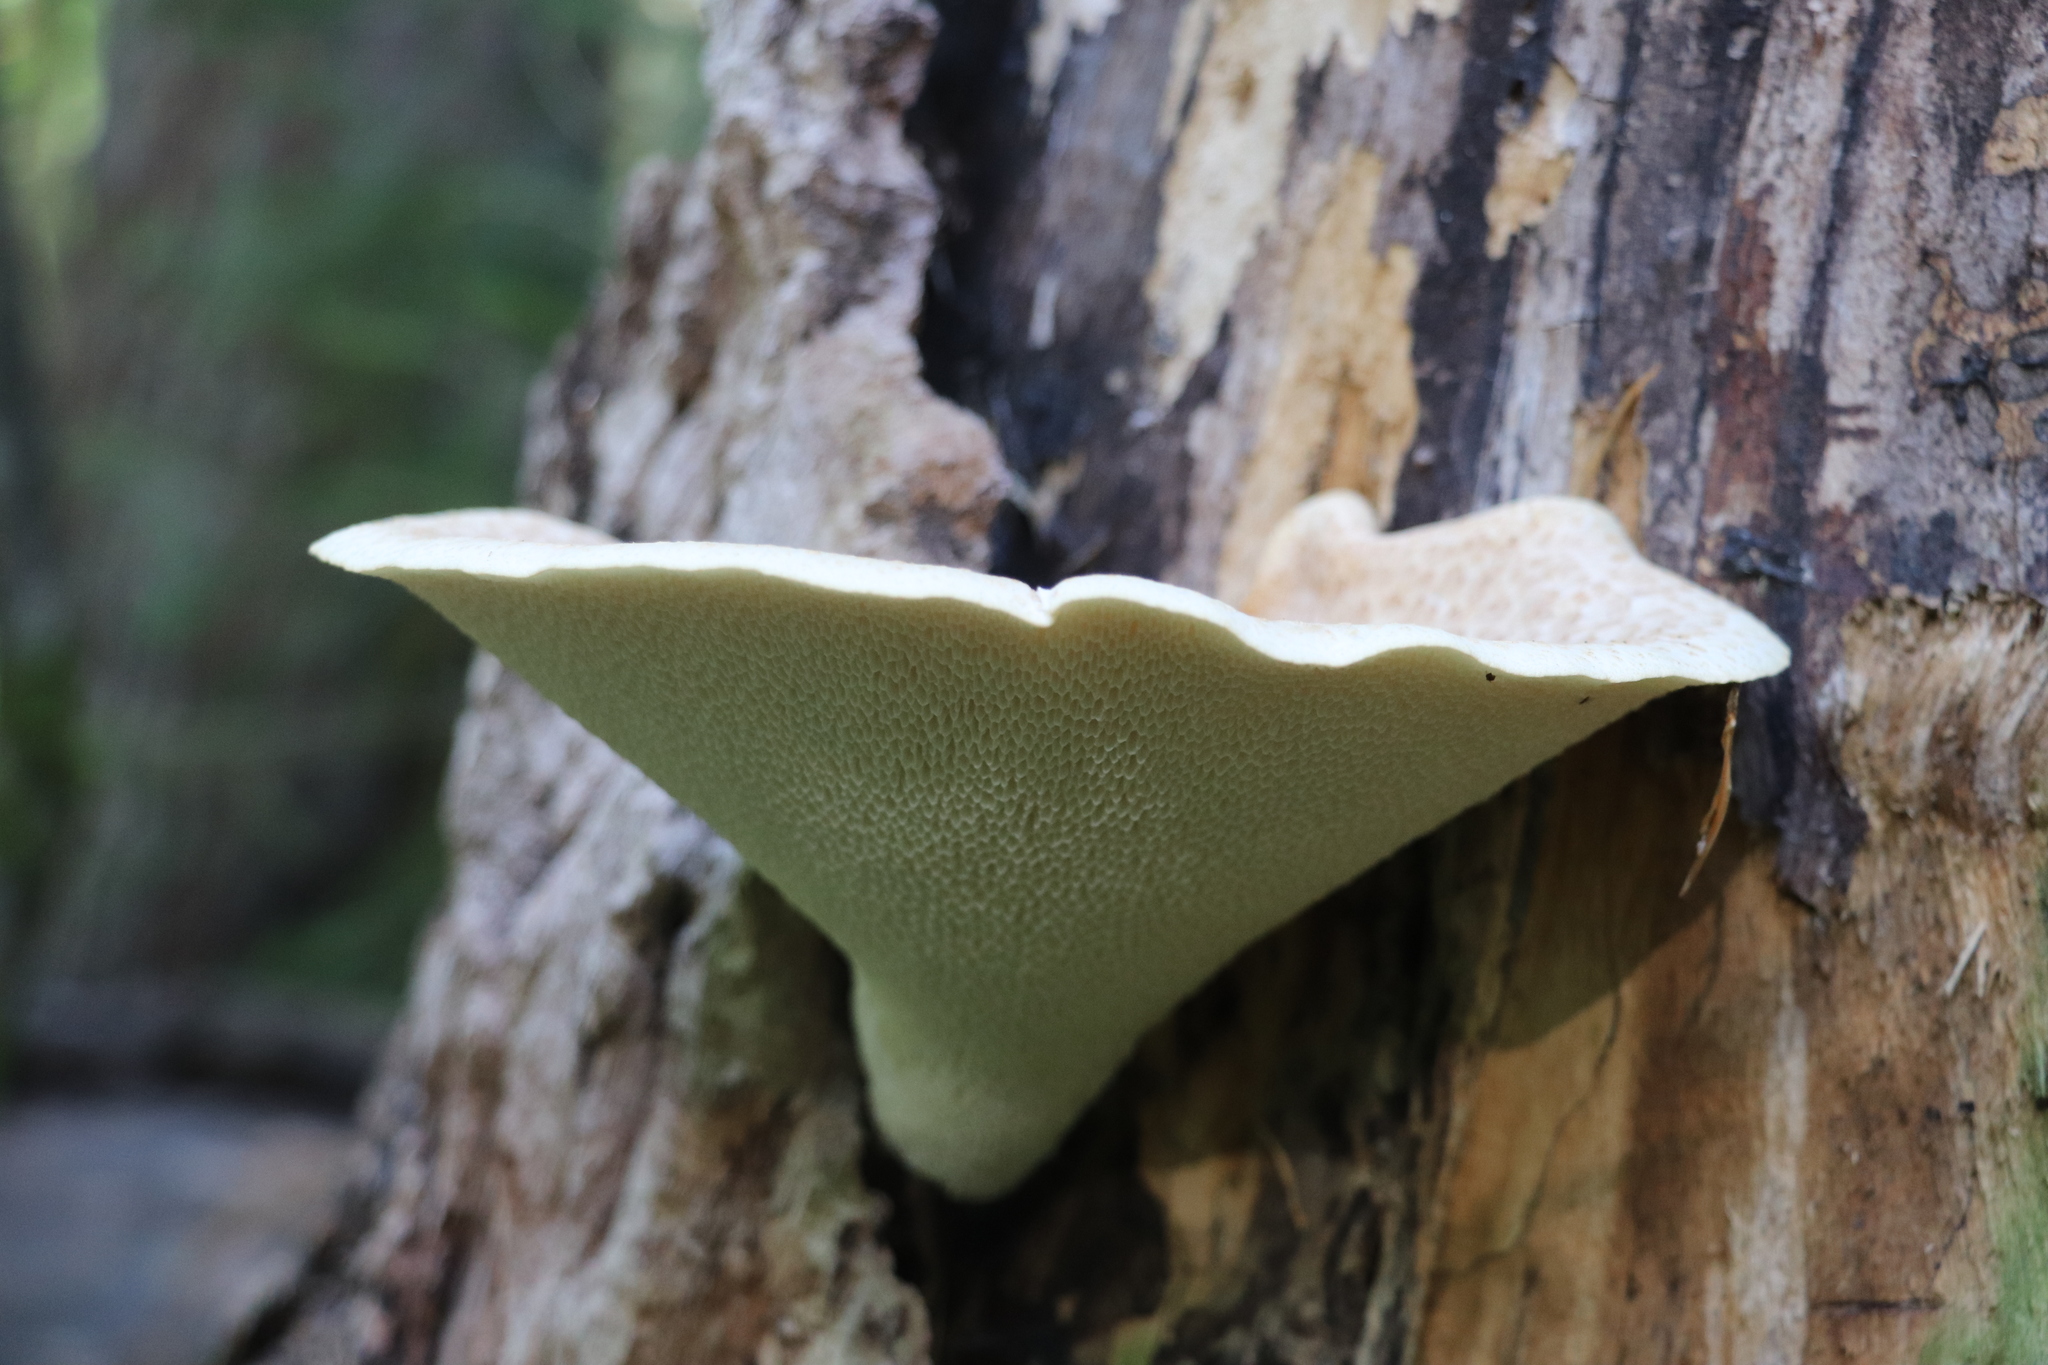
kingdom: Fungi
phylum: Basidiomycota
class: Agaricomycetes
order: Polyporales
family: Polyporaceae
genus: Cerioporus
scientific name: Cerioporus squamosus
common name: Dryad's saddle
